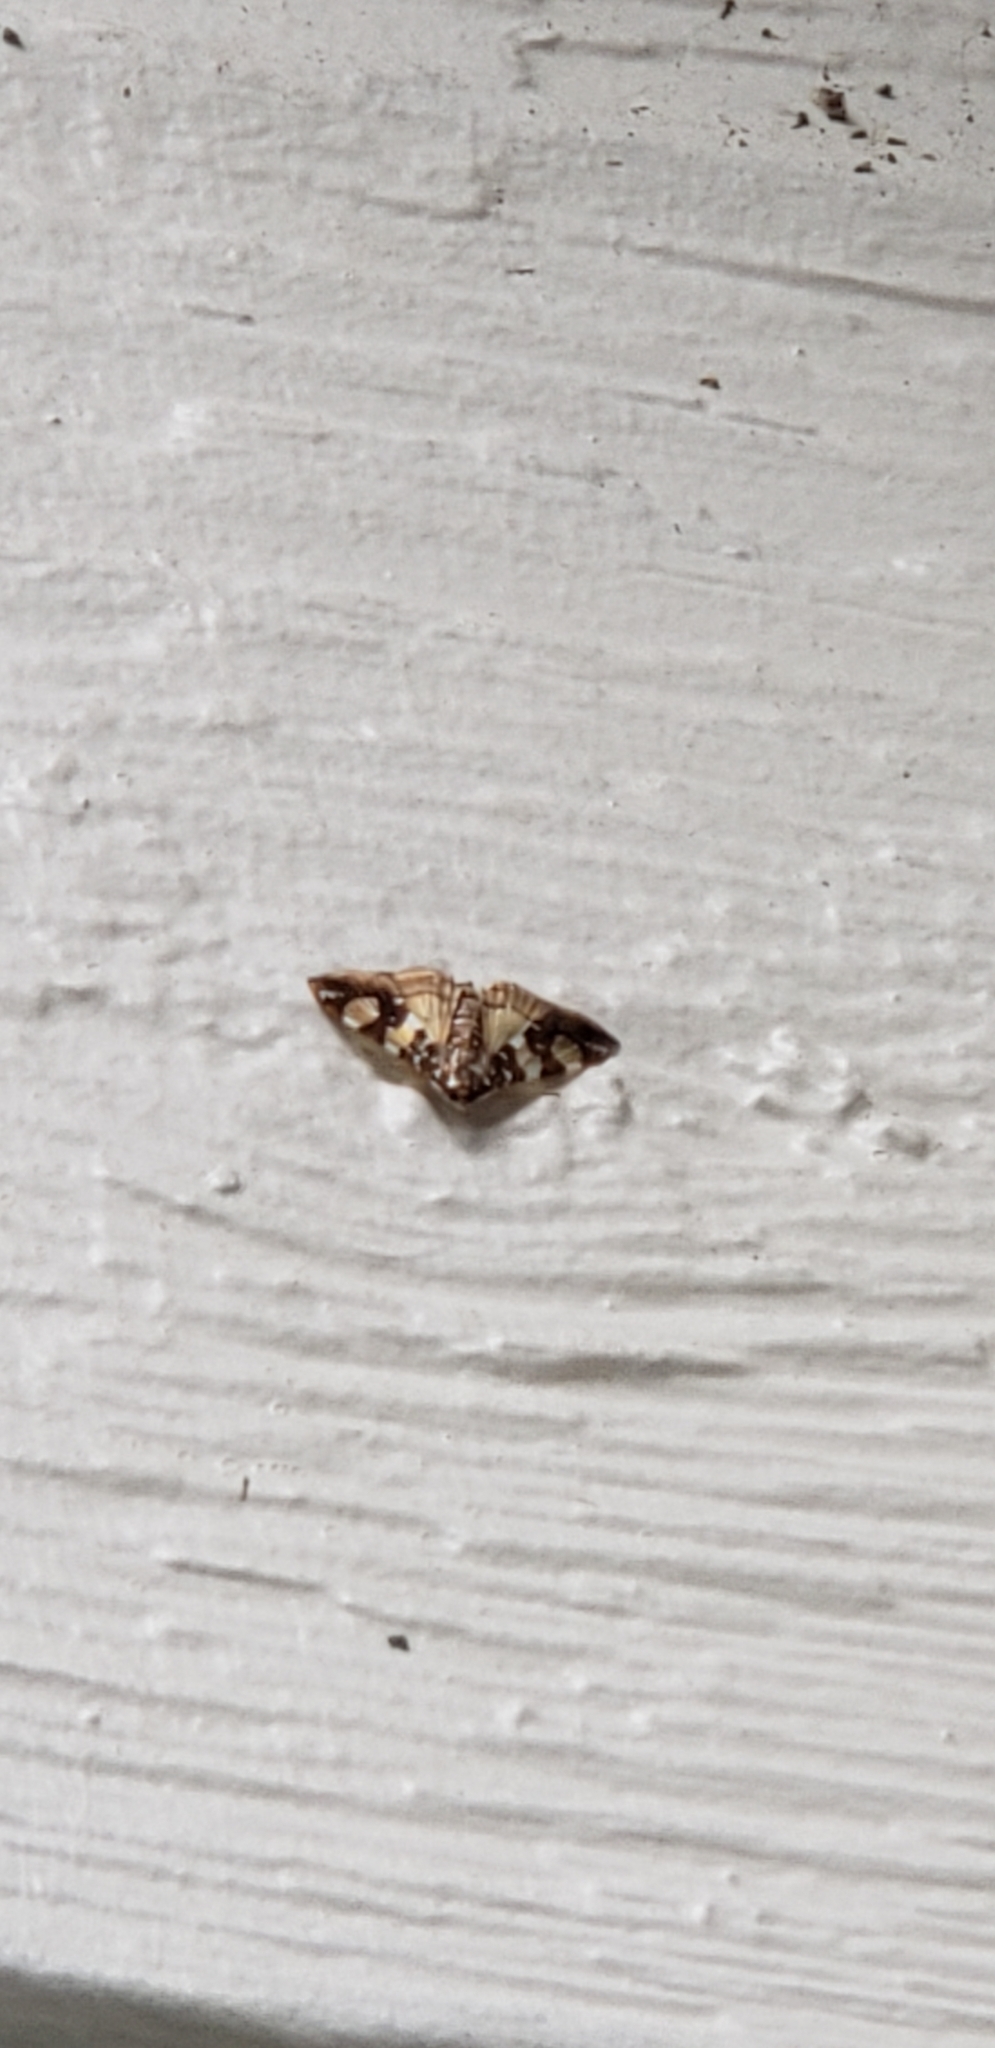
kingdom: Animalia
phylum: Arthropoda
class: Insecta
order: Lepidoptera
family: Crambidae
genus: Glyphodes
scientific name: Glyphodes sibillalis
